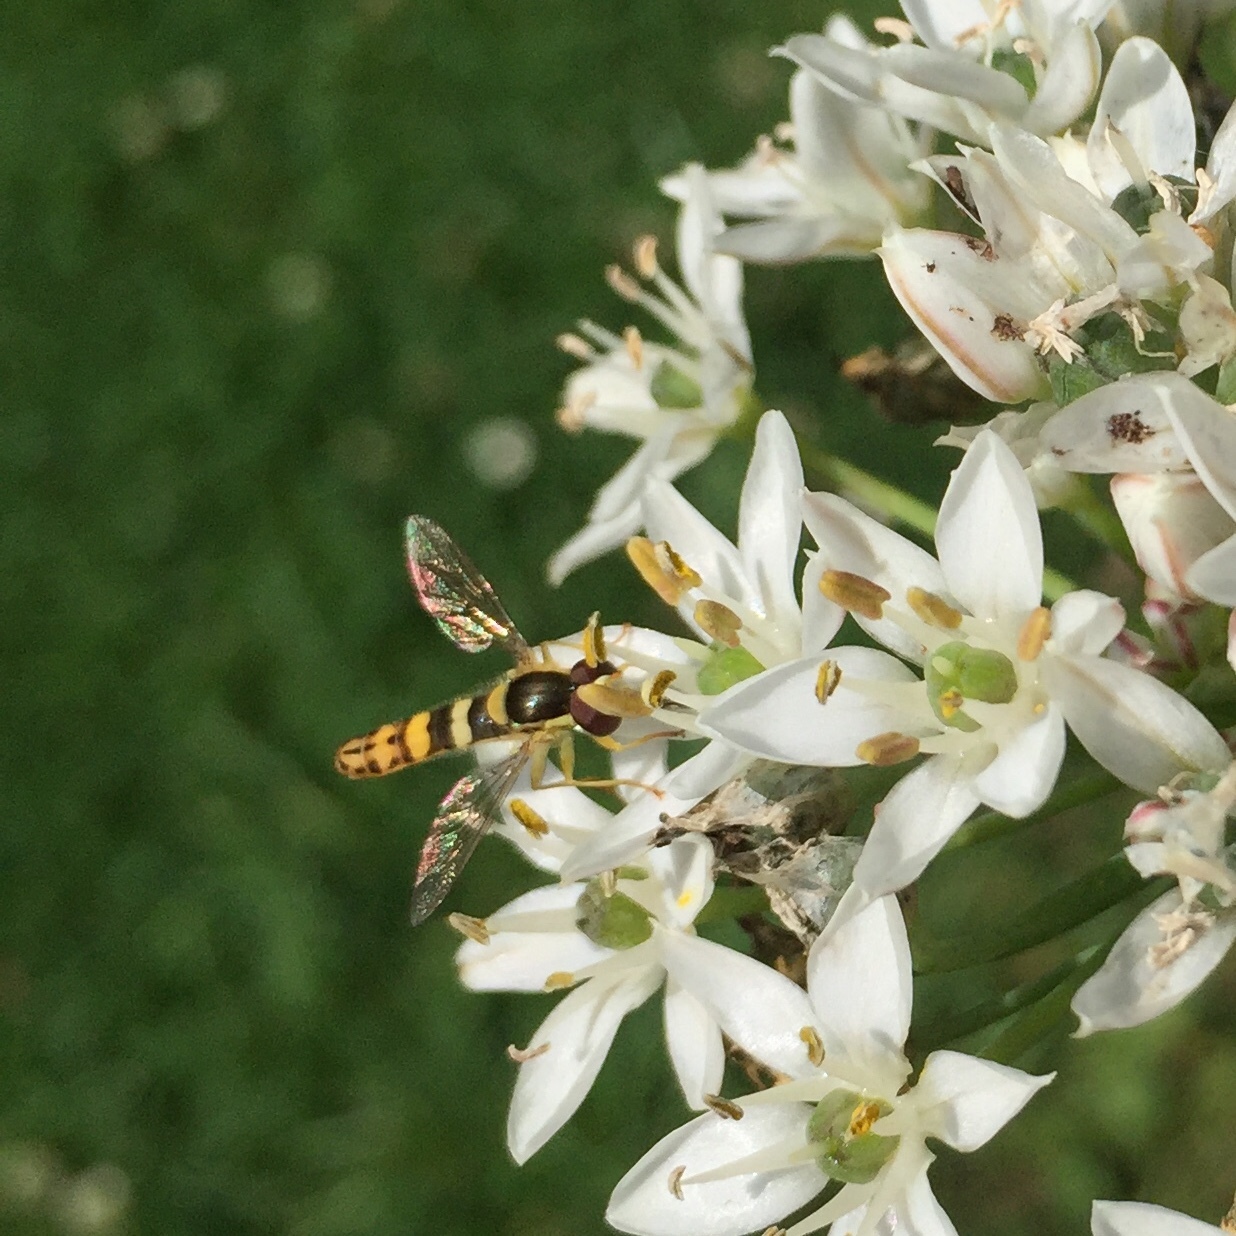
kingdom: Animalia
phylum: Arthropoda
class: Insecta
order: Diptera
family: Syrphidae
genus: Sphaerophoria
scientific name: Sphaerophoria scripta
